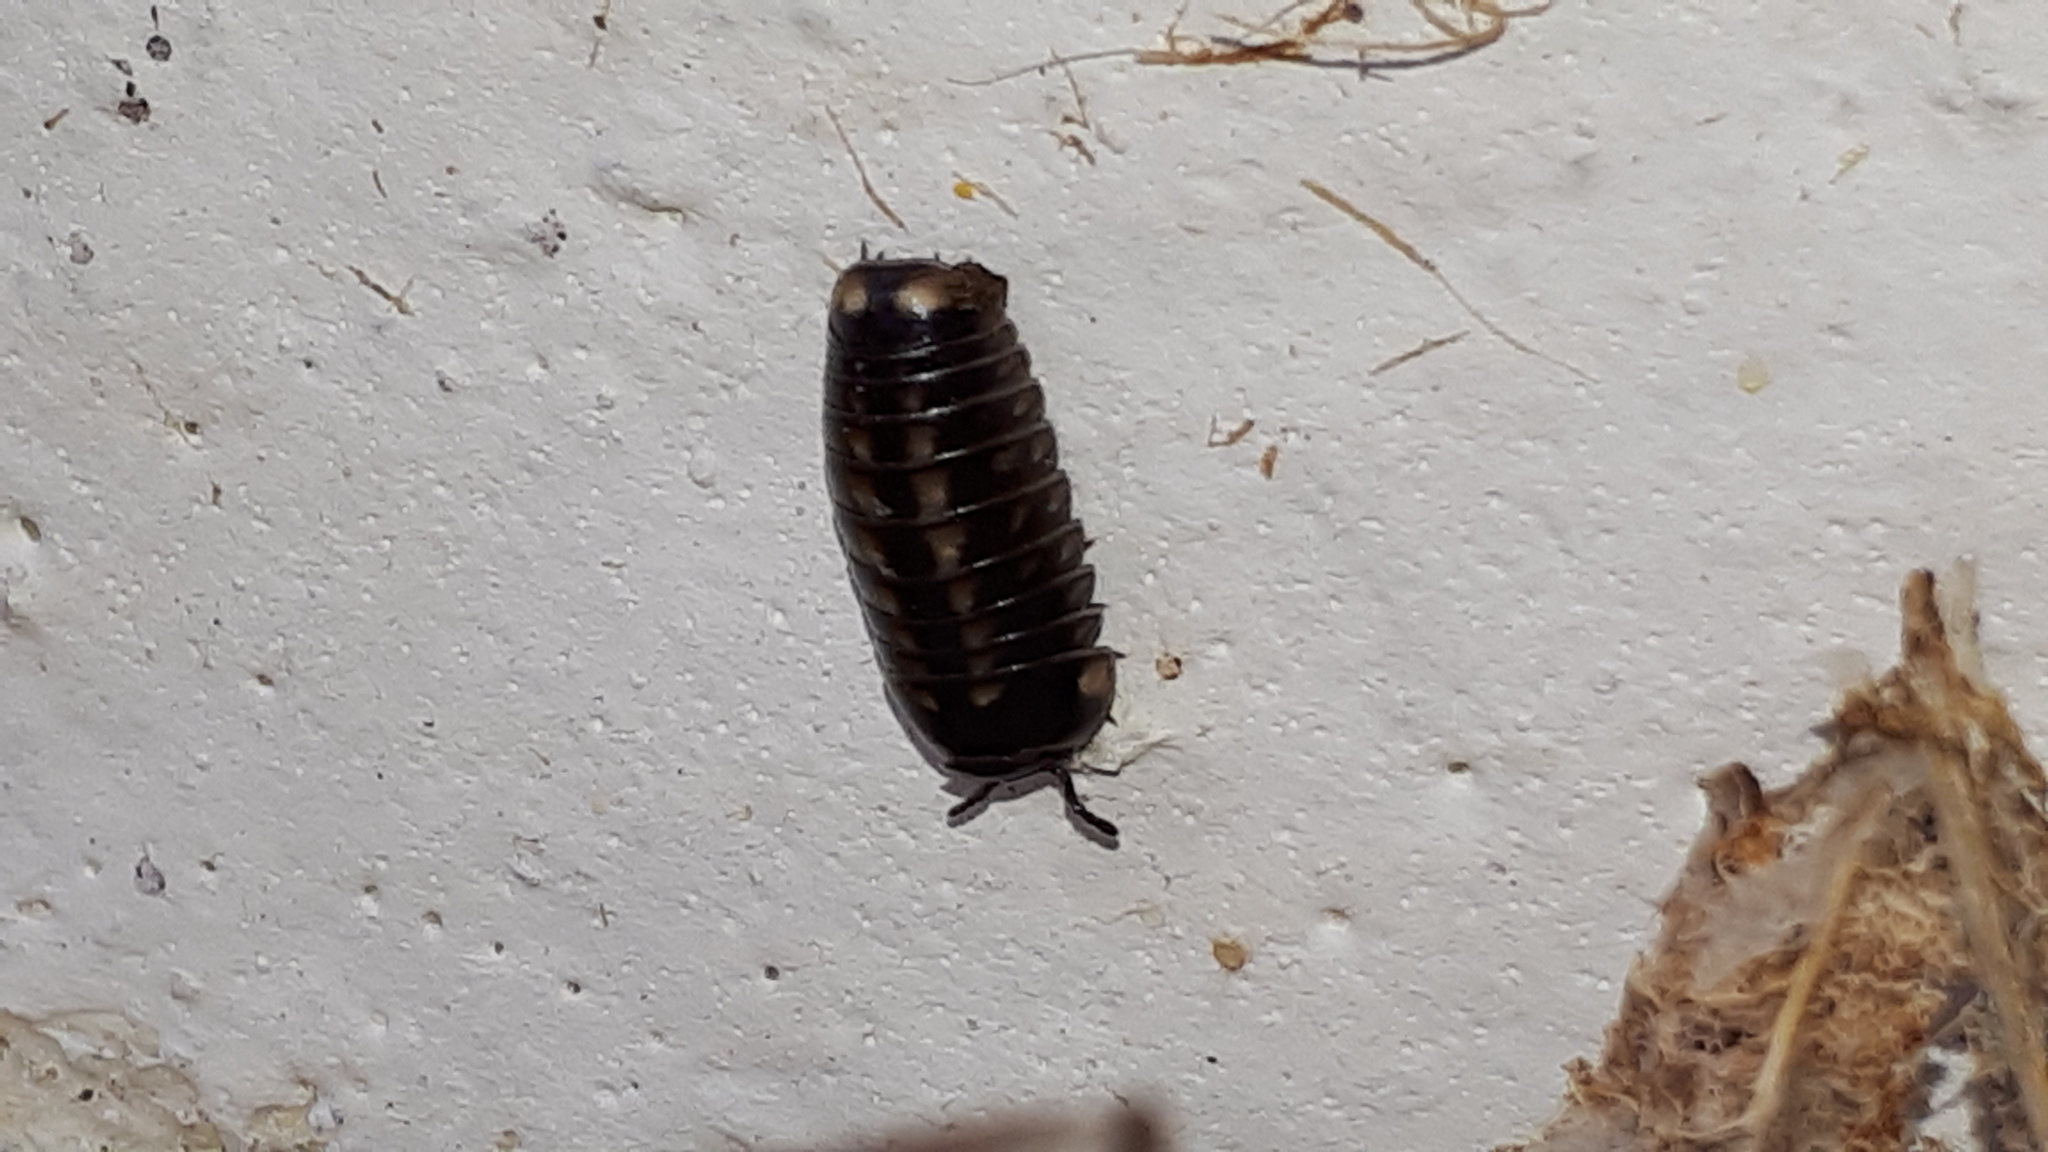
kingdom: Animalia
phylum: Arthropoda
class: Diplopoda
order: Glomerida
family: Glomeridae
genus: Glomeris
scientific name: Glomeris hexasticha
